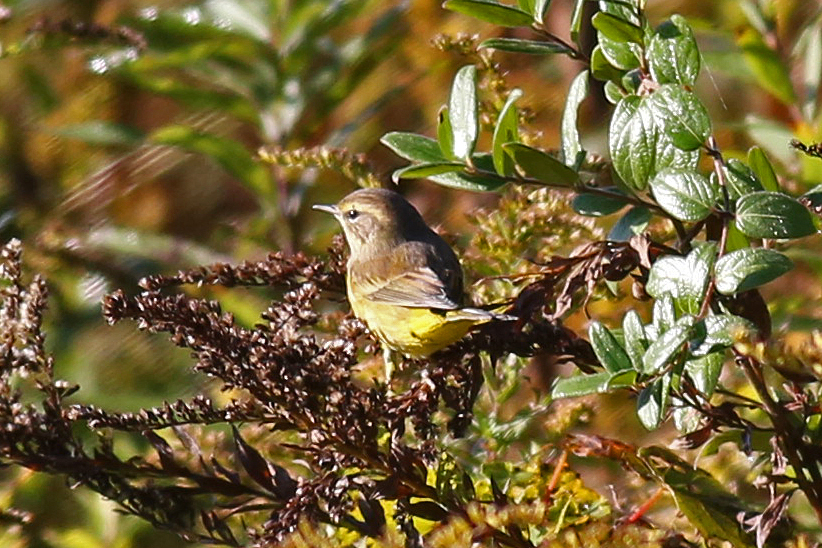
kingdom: Animalia
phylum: Chordata
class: Aves
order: Passeriformes
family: Parulidae
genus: Setophaga
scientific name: Setophaga palmarum
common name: Palm warbler
